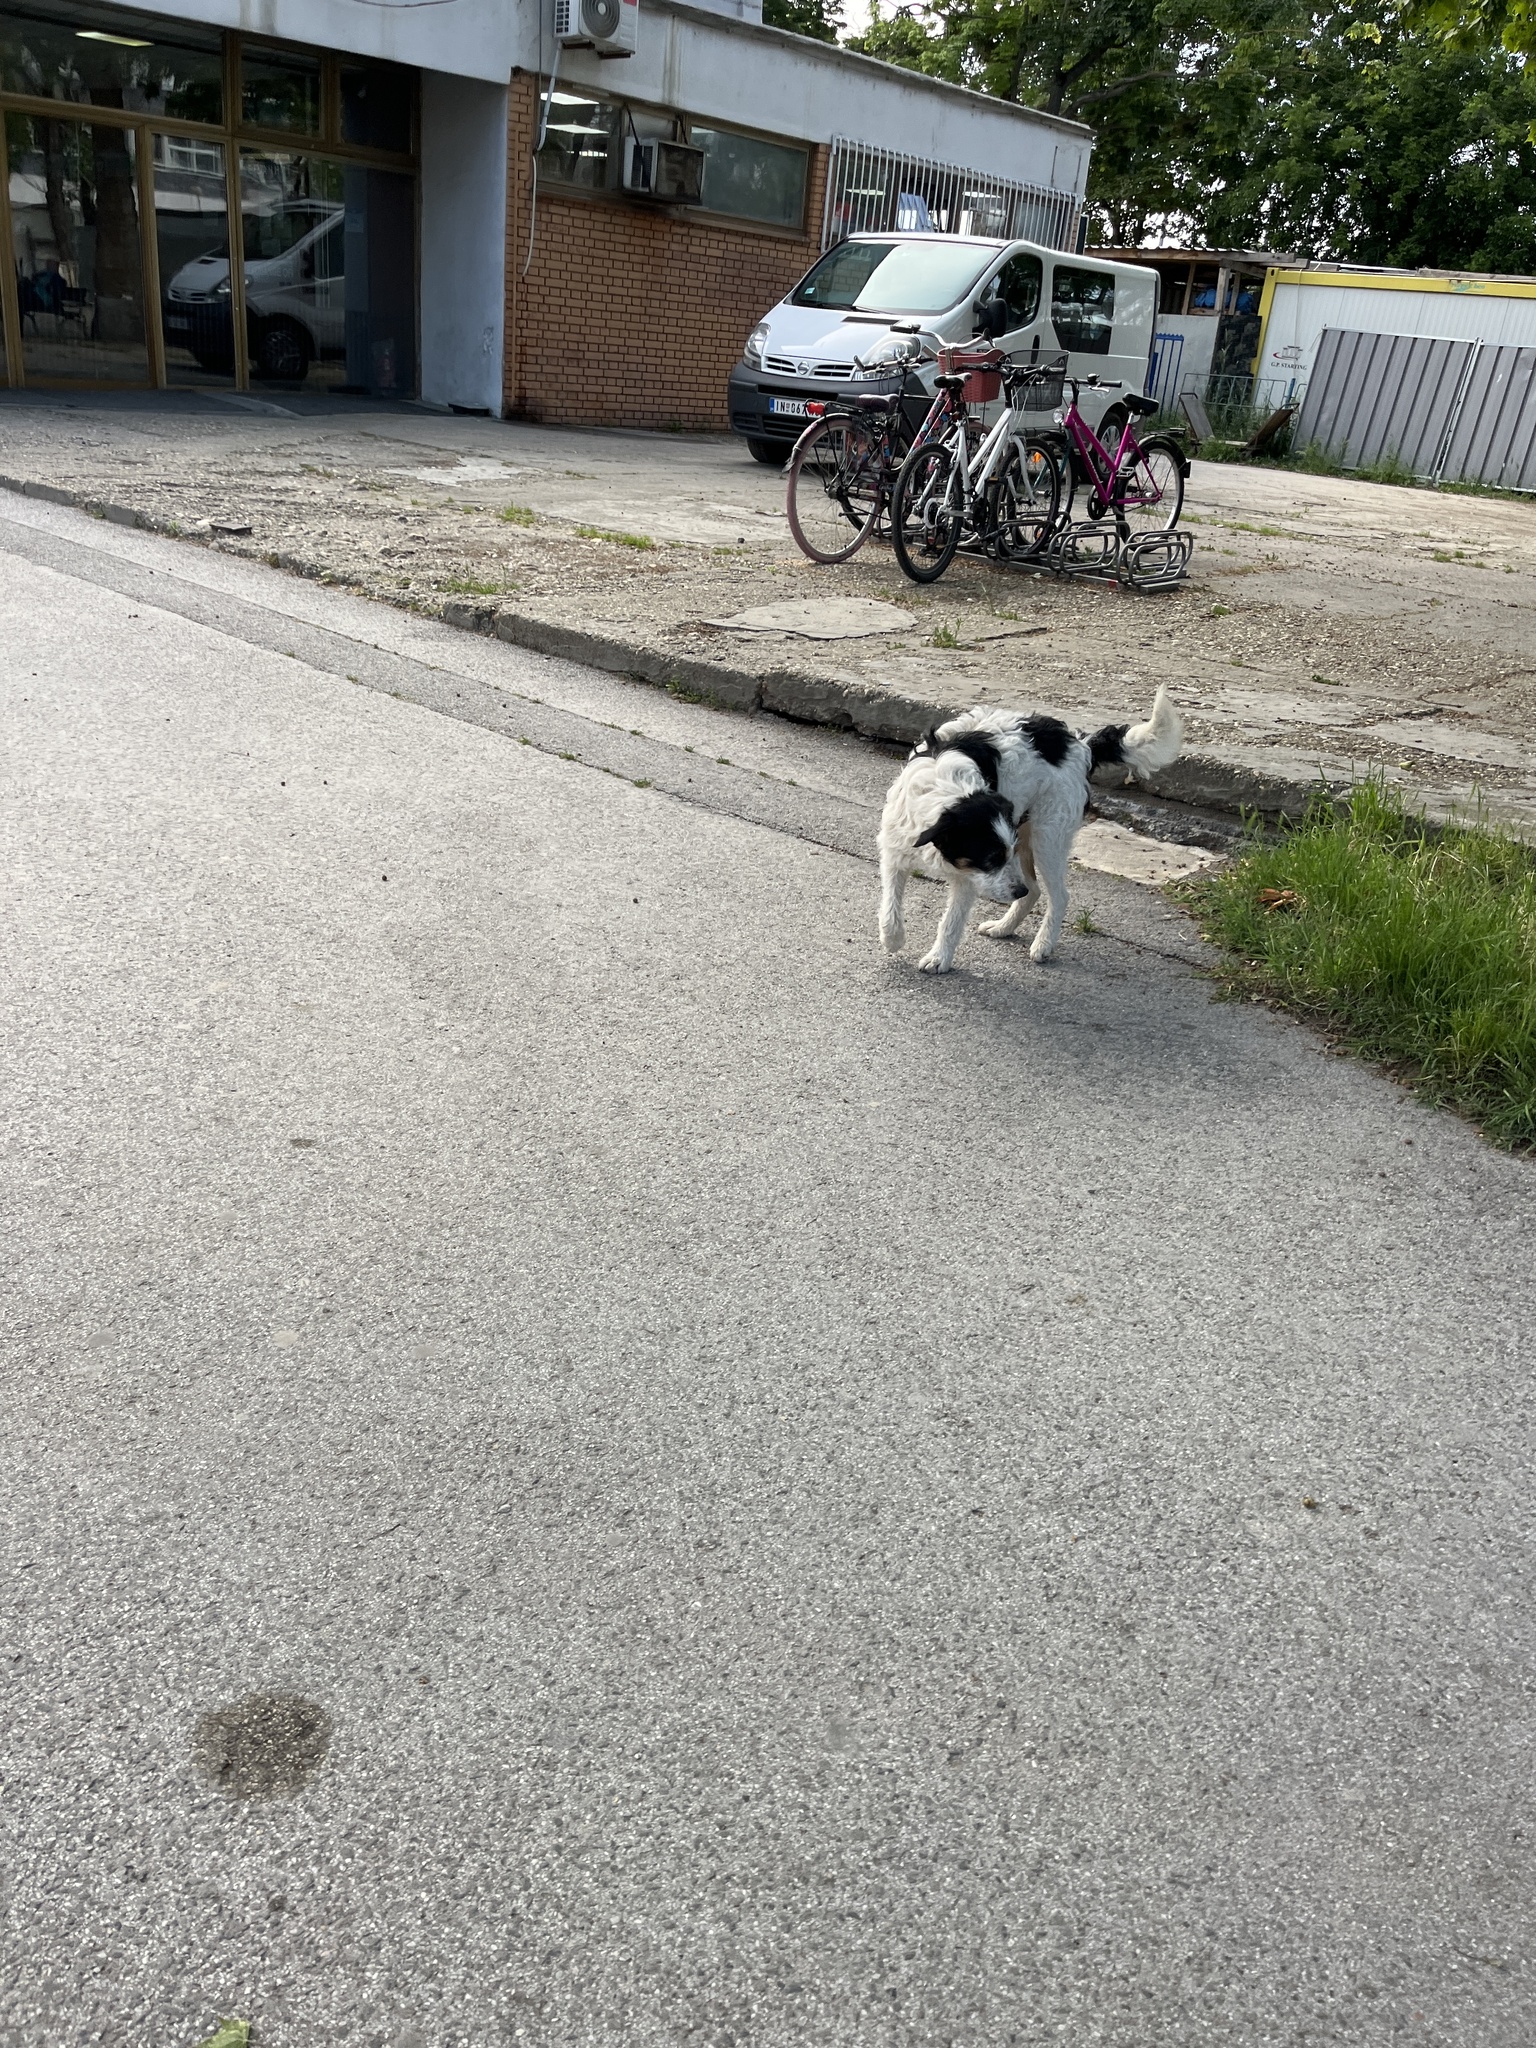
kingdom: Animalia
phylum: Chordata
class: Mammalia
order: Carnivora
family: Canidae
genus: Canis
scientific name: Canis lupus
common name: Gray wolf
